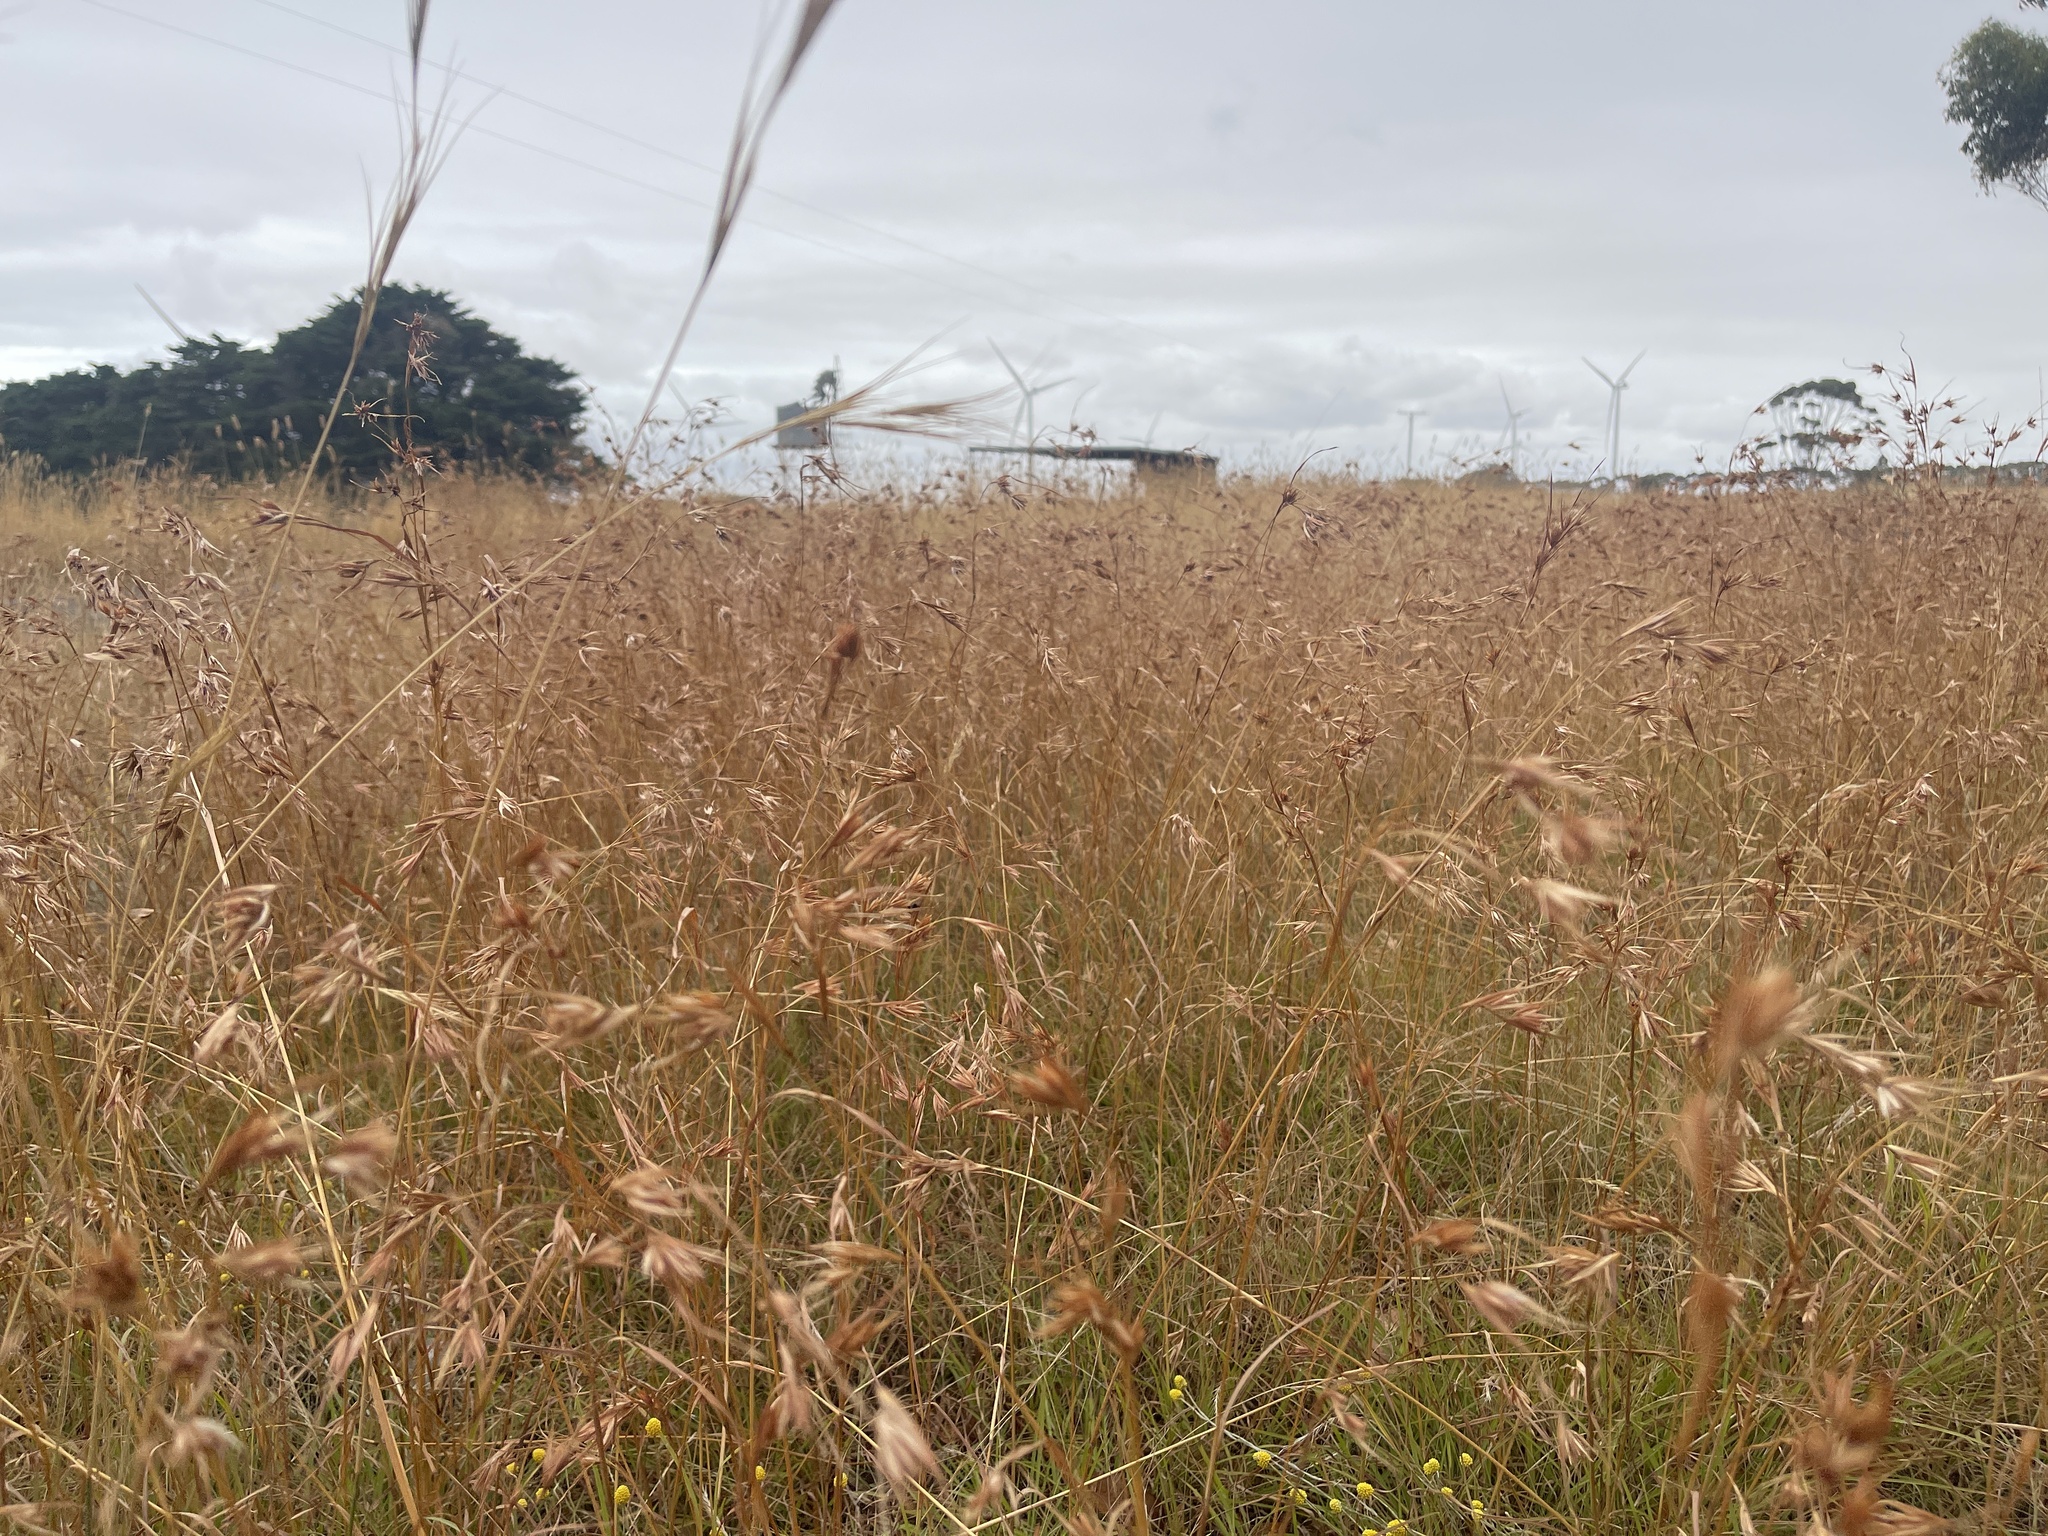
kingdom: Plantae
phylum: Tracheophyta
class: Liliopsida
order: Poales
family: Poaceae
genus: Themeda
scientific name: Themeda triandra
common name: Kangaroo grass
